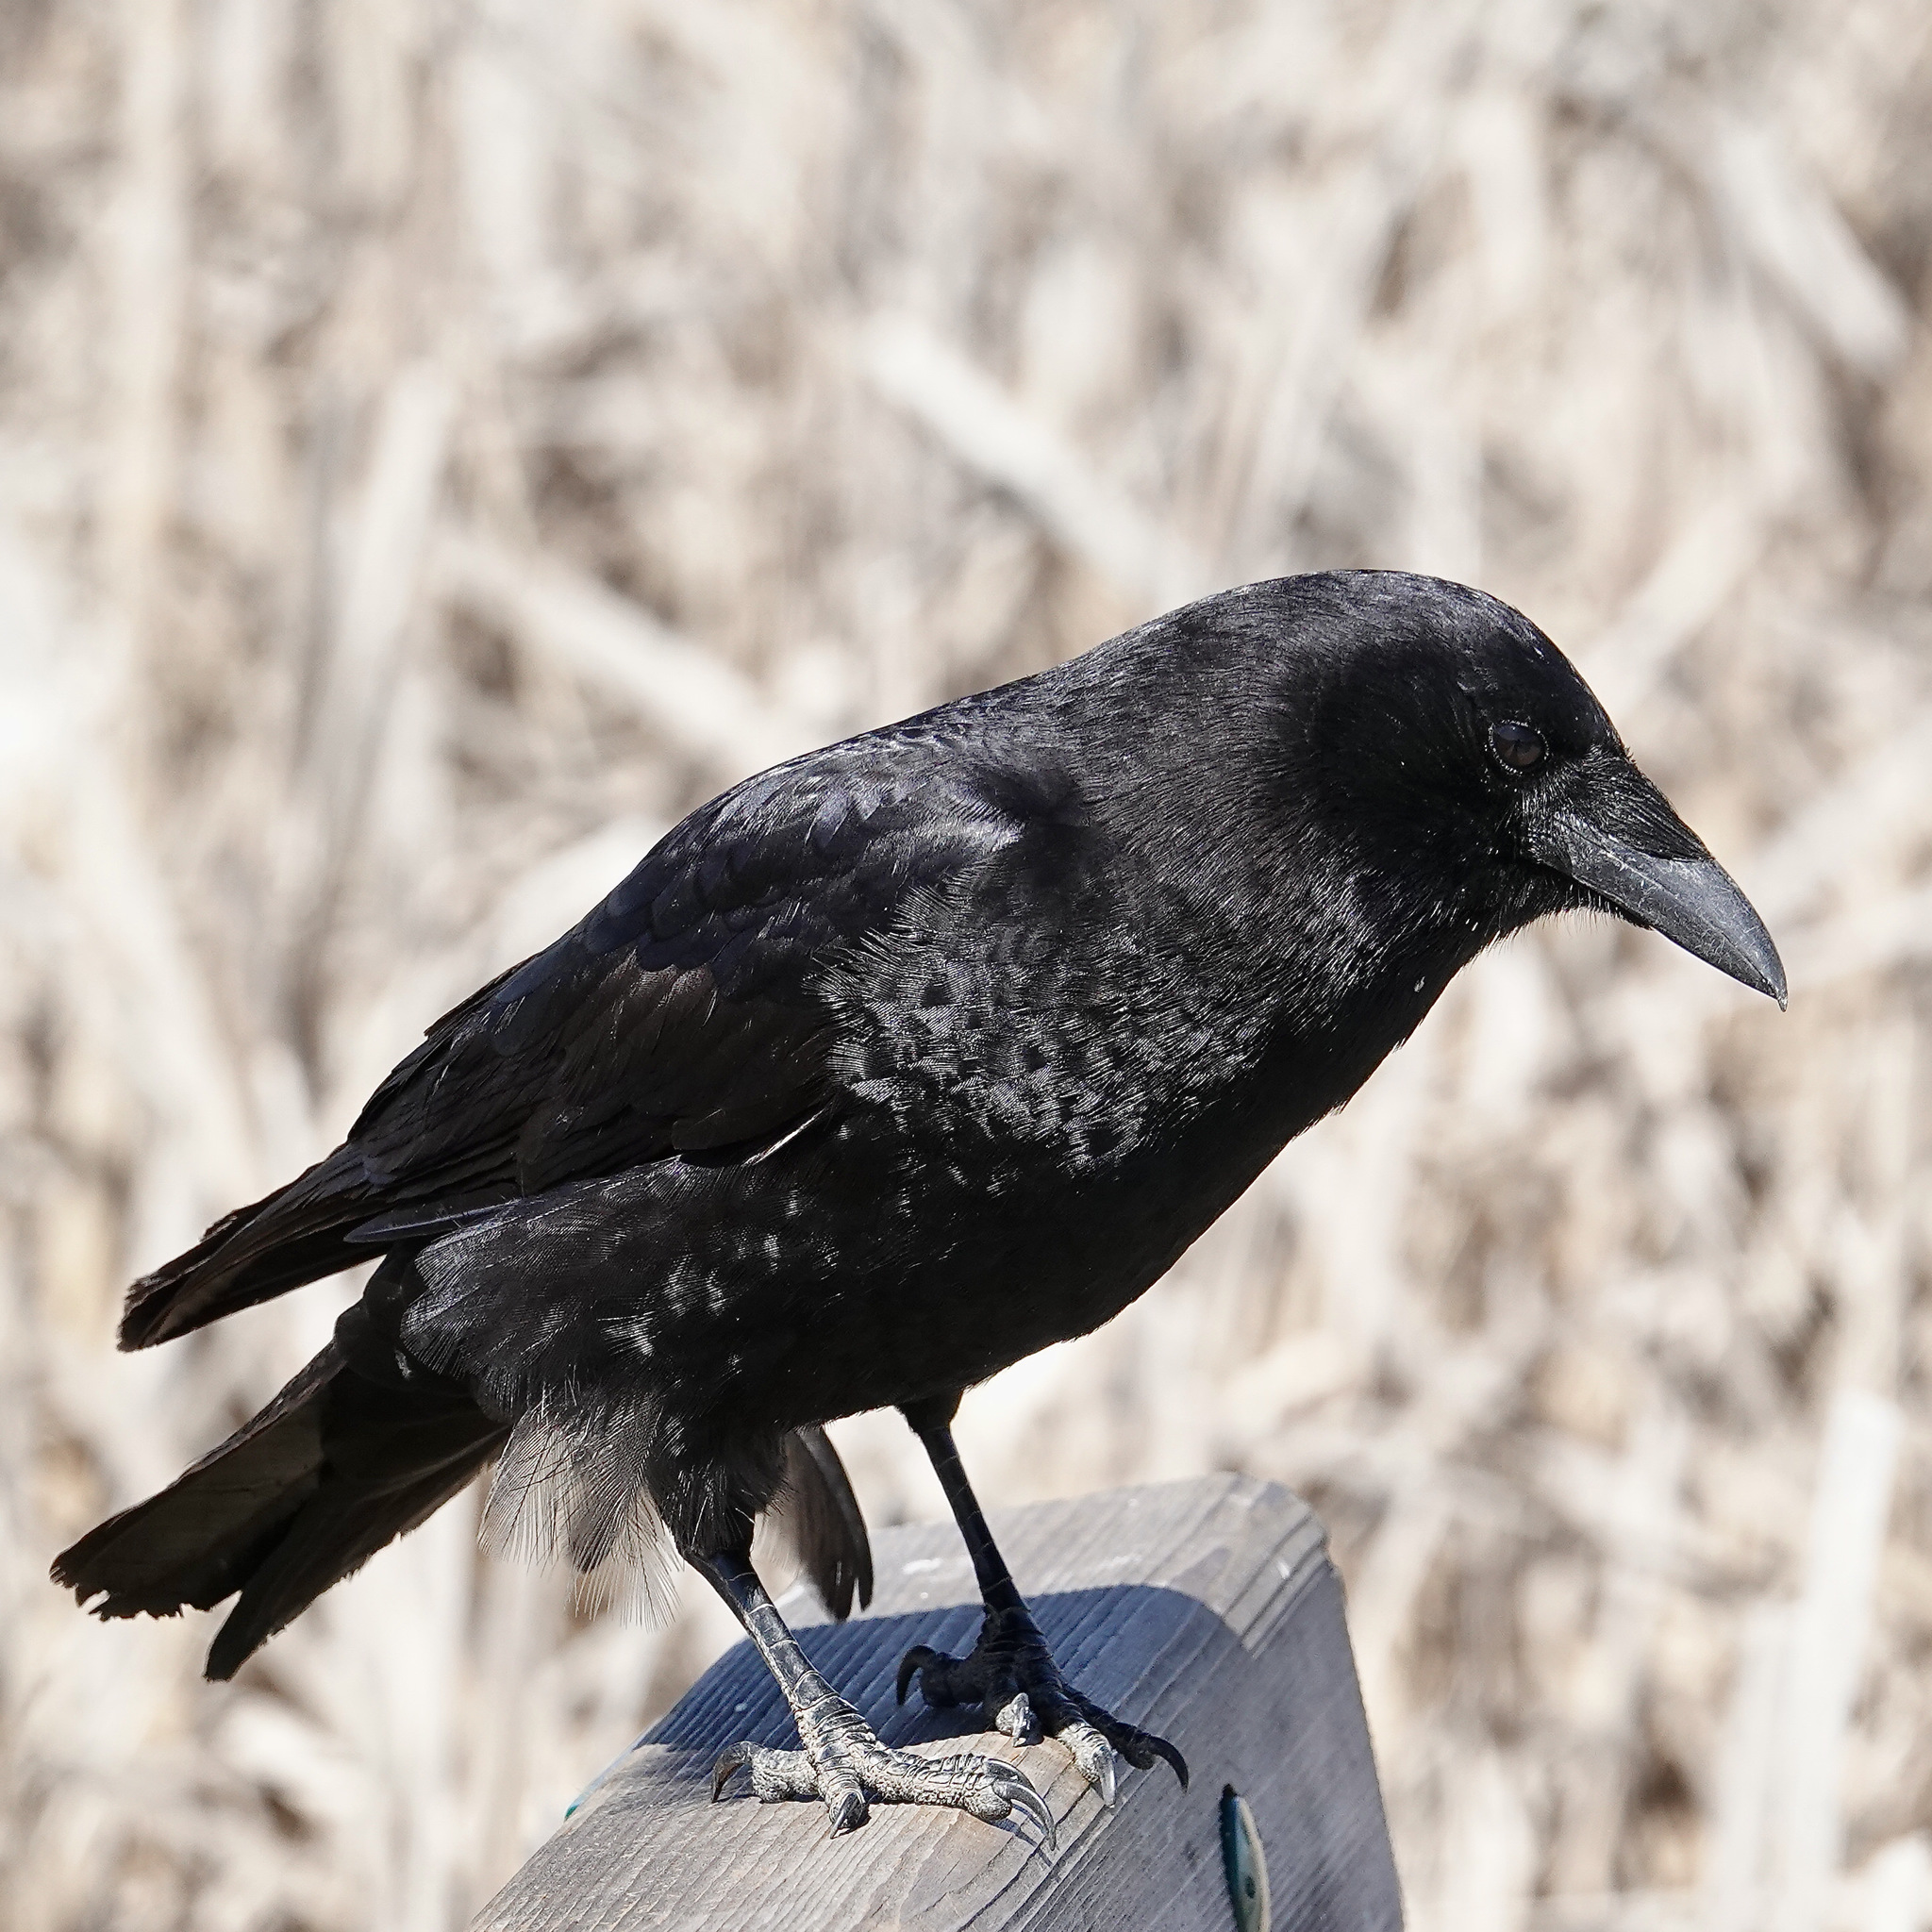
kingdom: Animalia
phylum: Chordata
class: Aves
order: Passeriformes
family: Corvidae
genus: Corvus
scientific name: Corvus brachyrhynchos
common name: American crow
